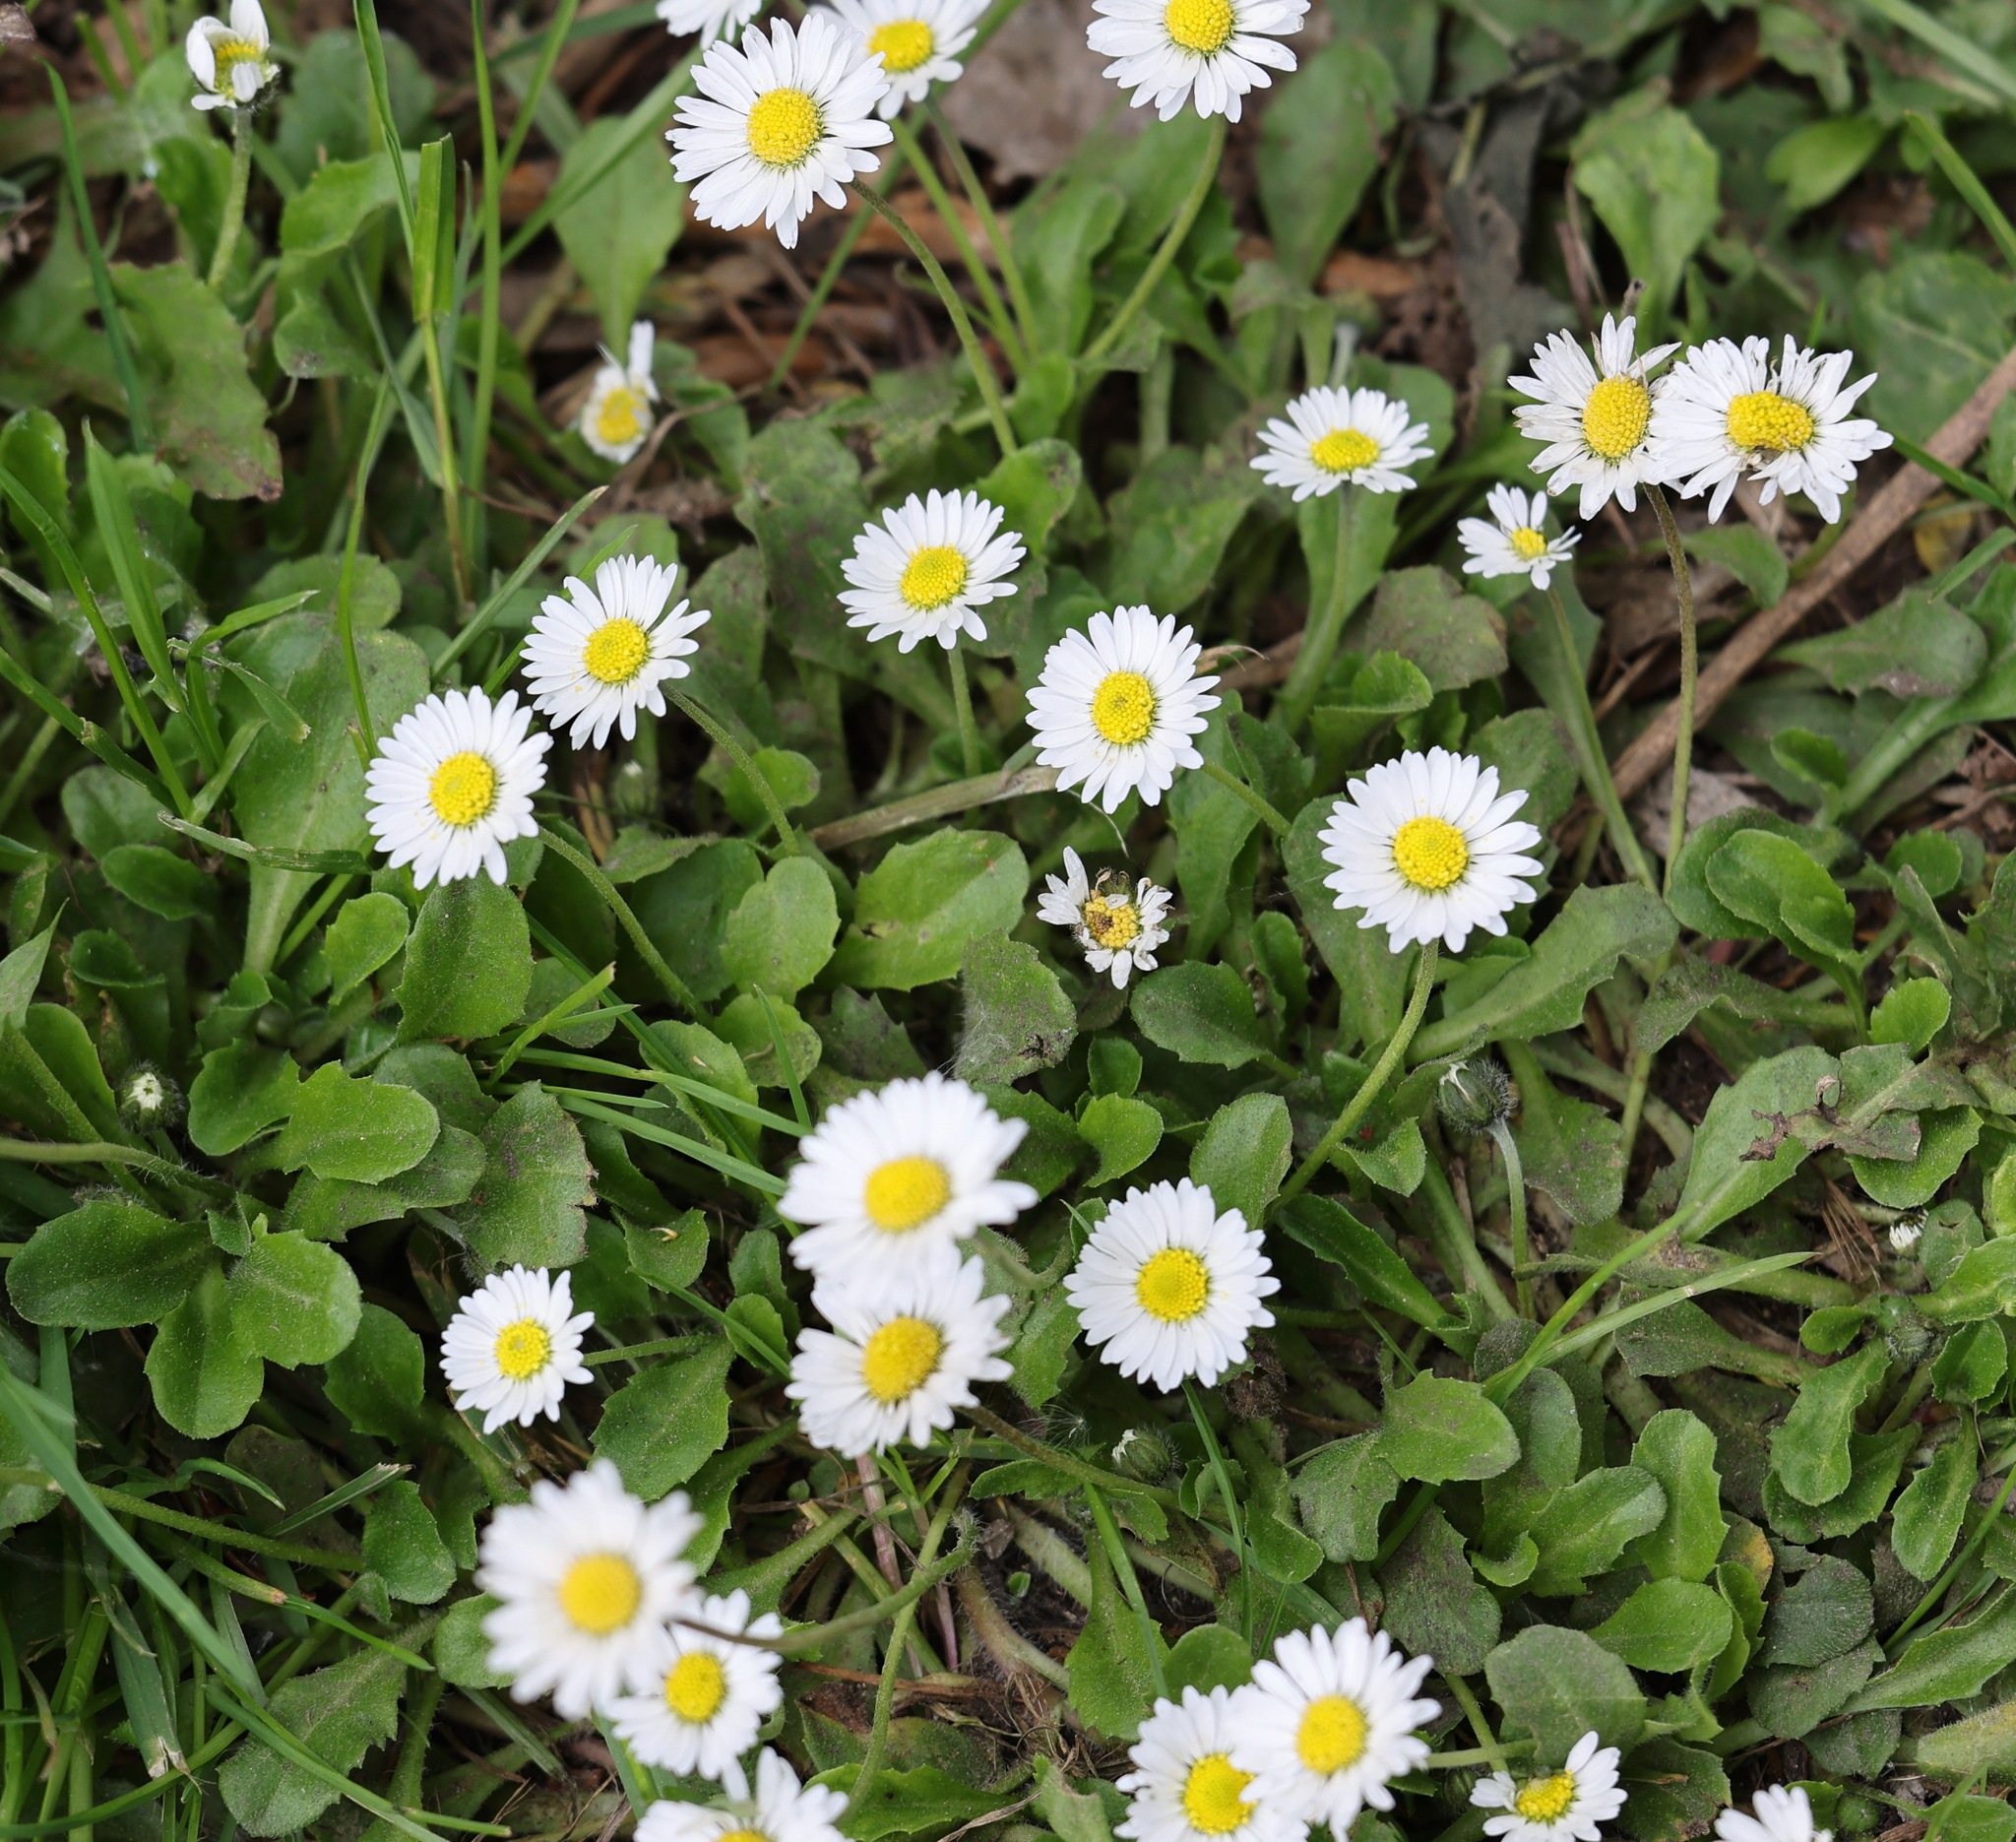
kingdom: Plantae
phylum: Tracheophyta
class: Magnoliopsida
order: Asterales
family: Asteraceae
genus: Bellis
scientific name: Bellis perennis
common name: Lawndaisy
